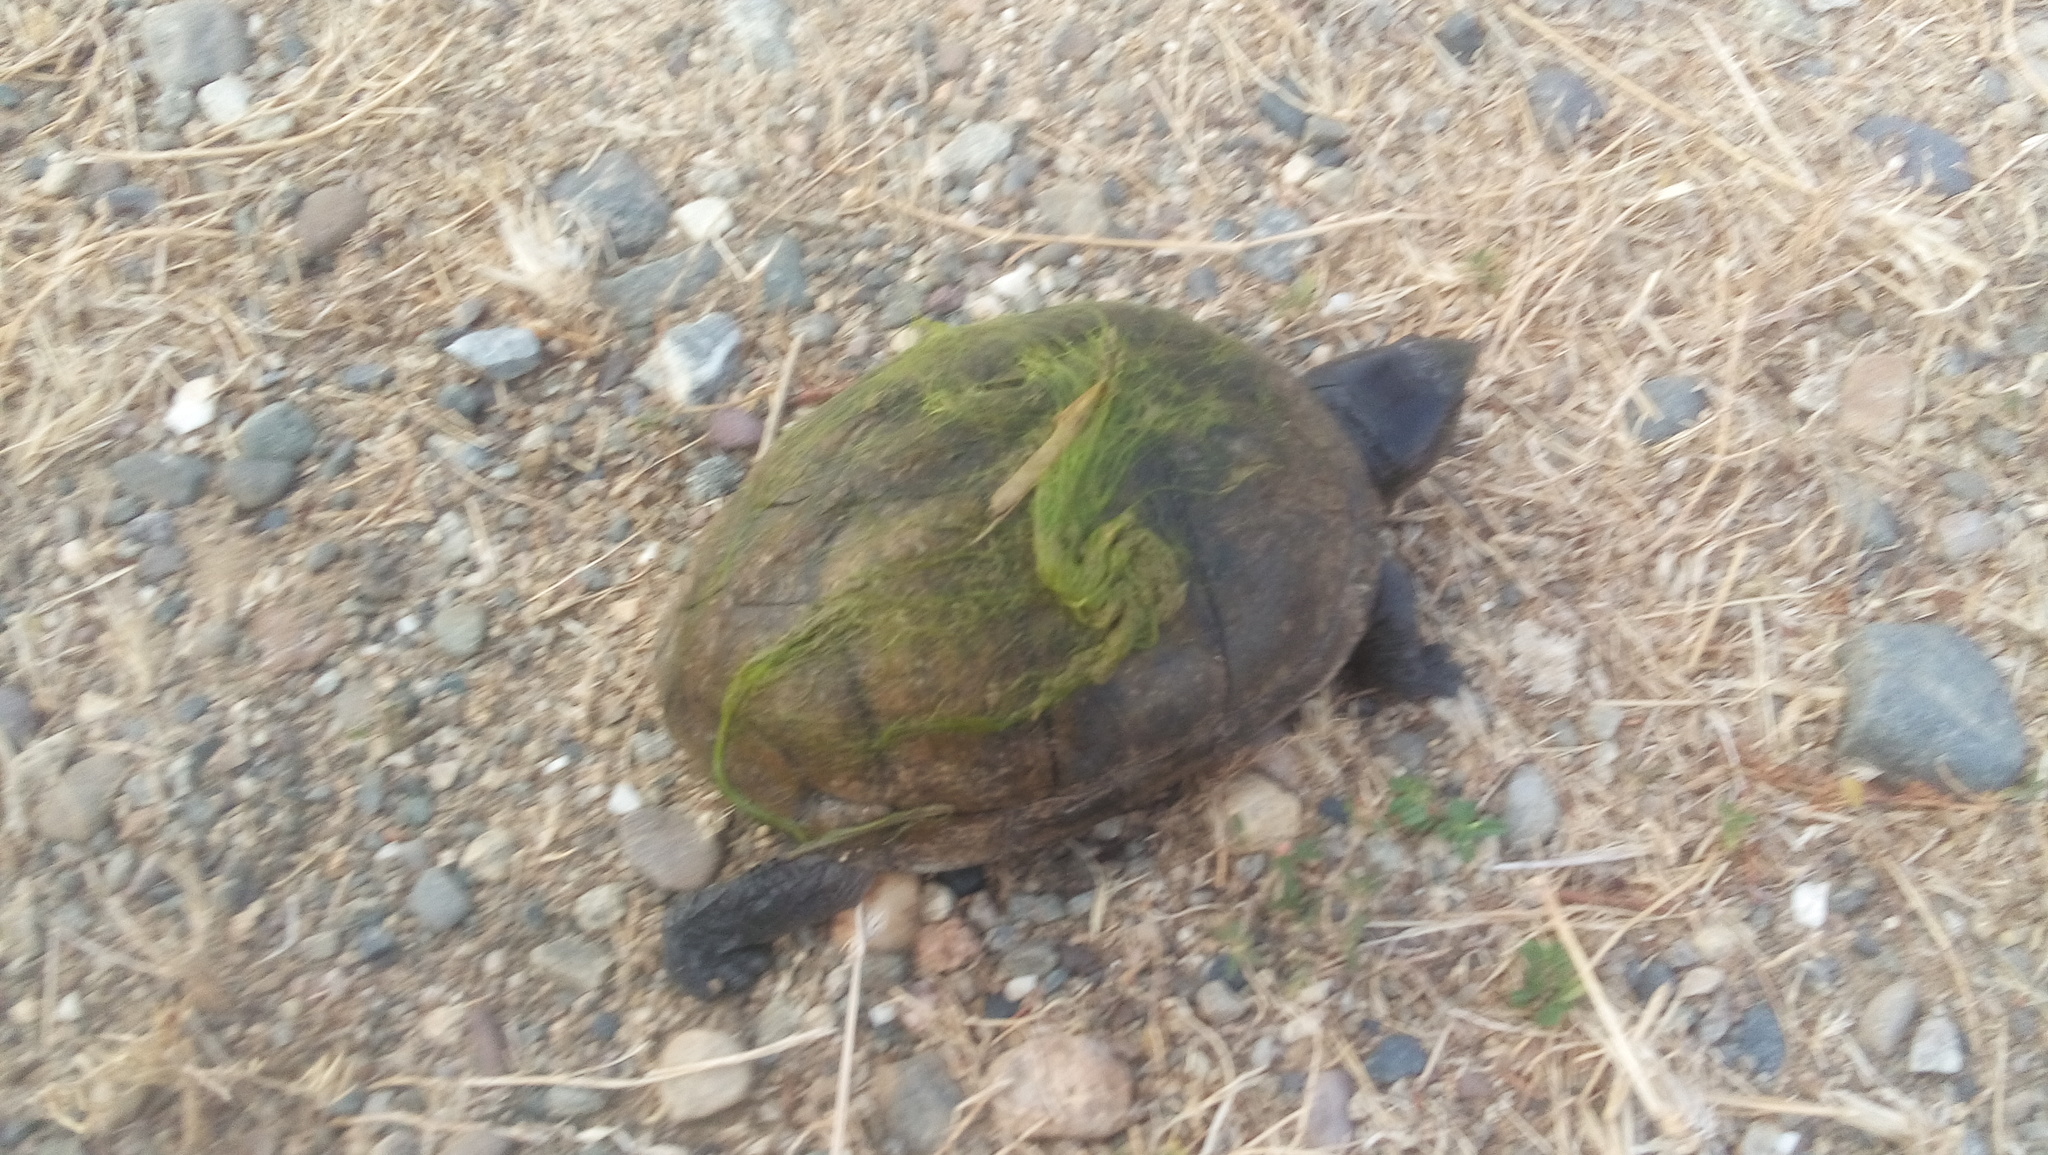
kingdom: Animalia
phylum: Chordata
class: Testudines
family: Kinosternidae
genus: Kinosternon
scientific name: Kinosternon scorpioides
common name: Scorpion mud turtle
